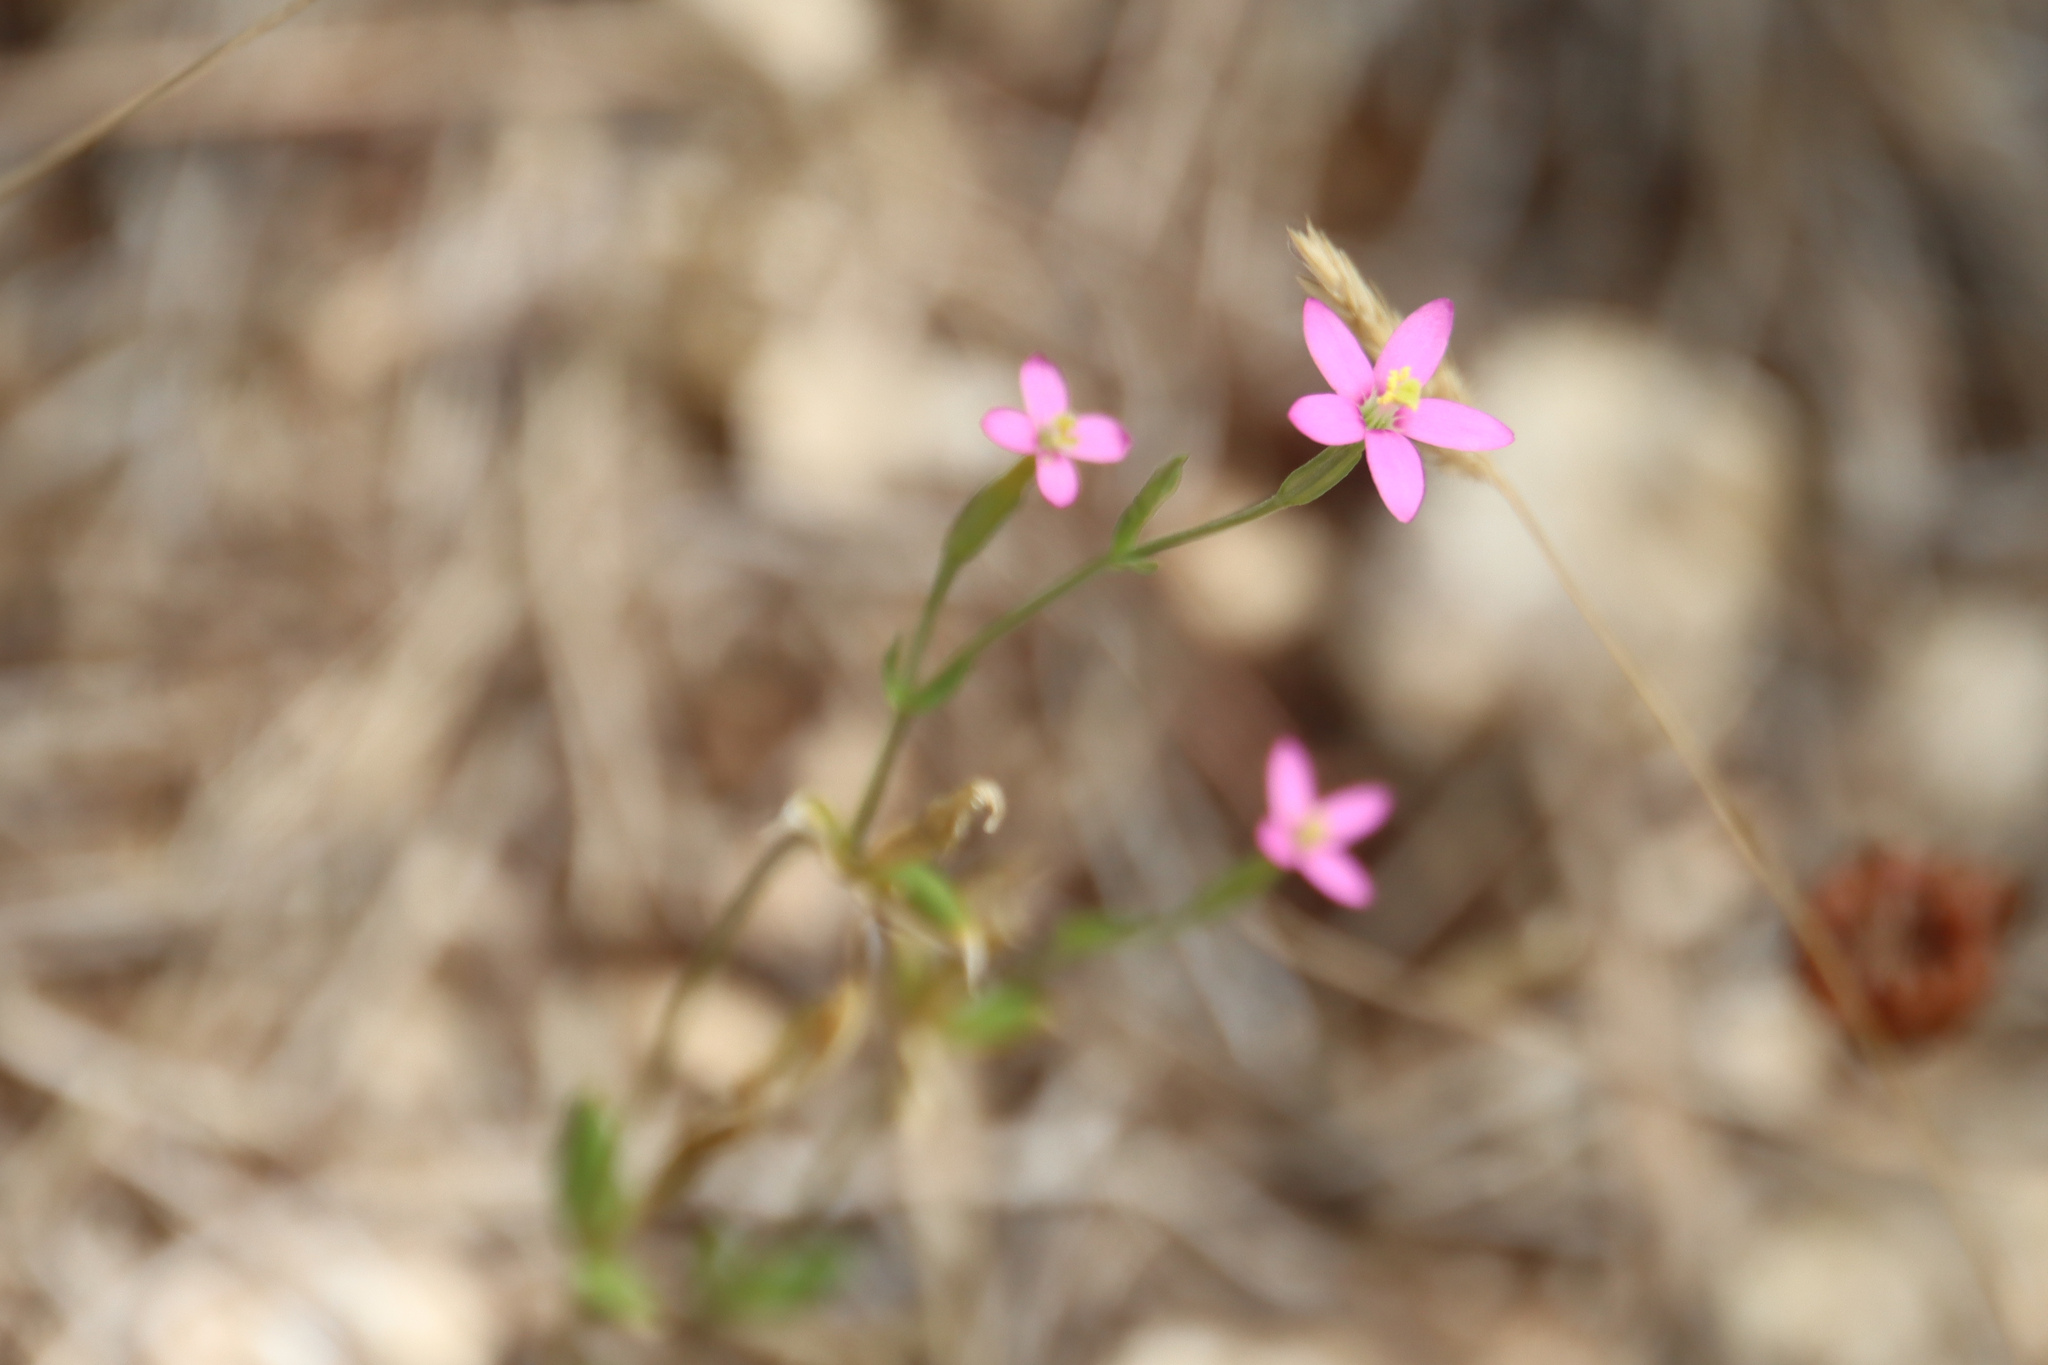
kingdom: Plantae
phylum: Tracheophyta
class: Magnoliopsida
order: Gentianales
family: Gentianaceae
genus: Centaurium
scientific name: Centaurium pulchellum
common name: Lesser centaury
